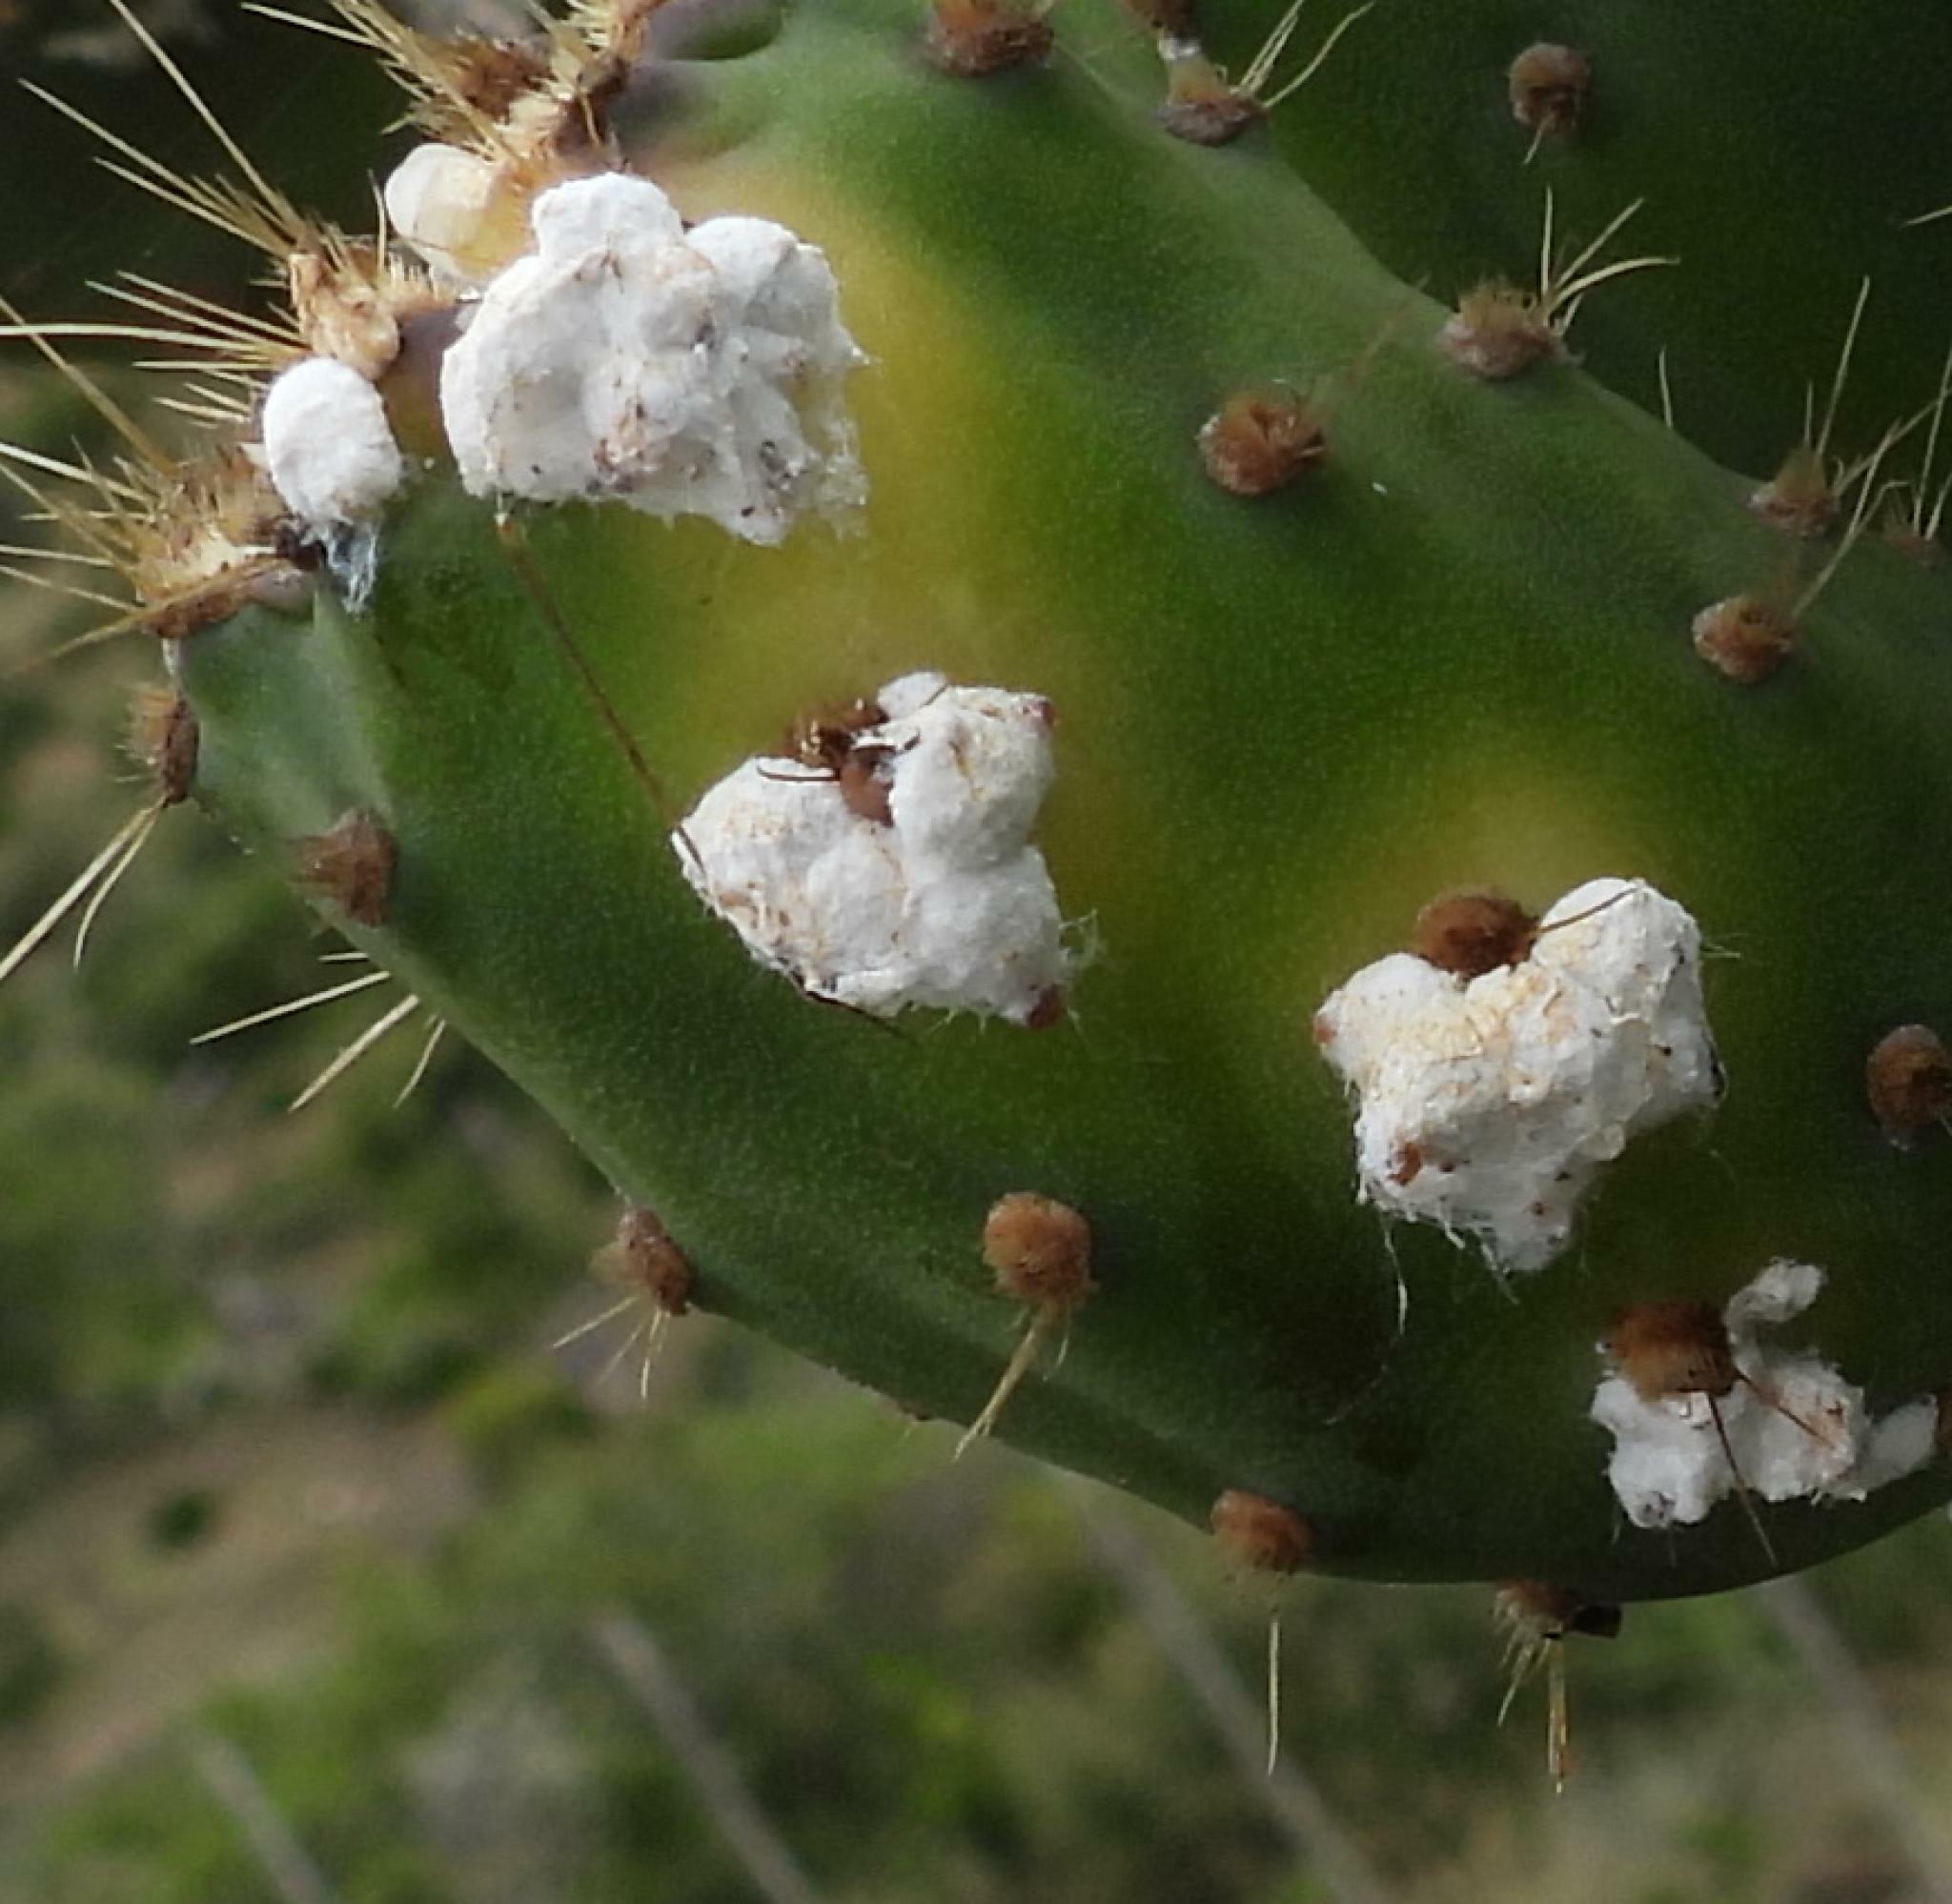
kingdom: Animalia
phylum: Arthropoda
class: Insecta
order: Hemiptera
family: Dactylopiidae
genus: Dactylopius
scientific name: Dactylopius opuntiae
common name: Opuntia cochineal scale
